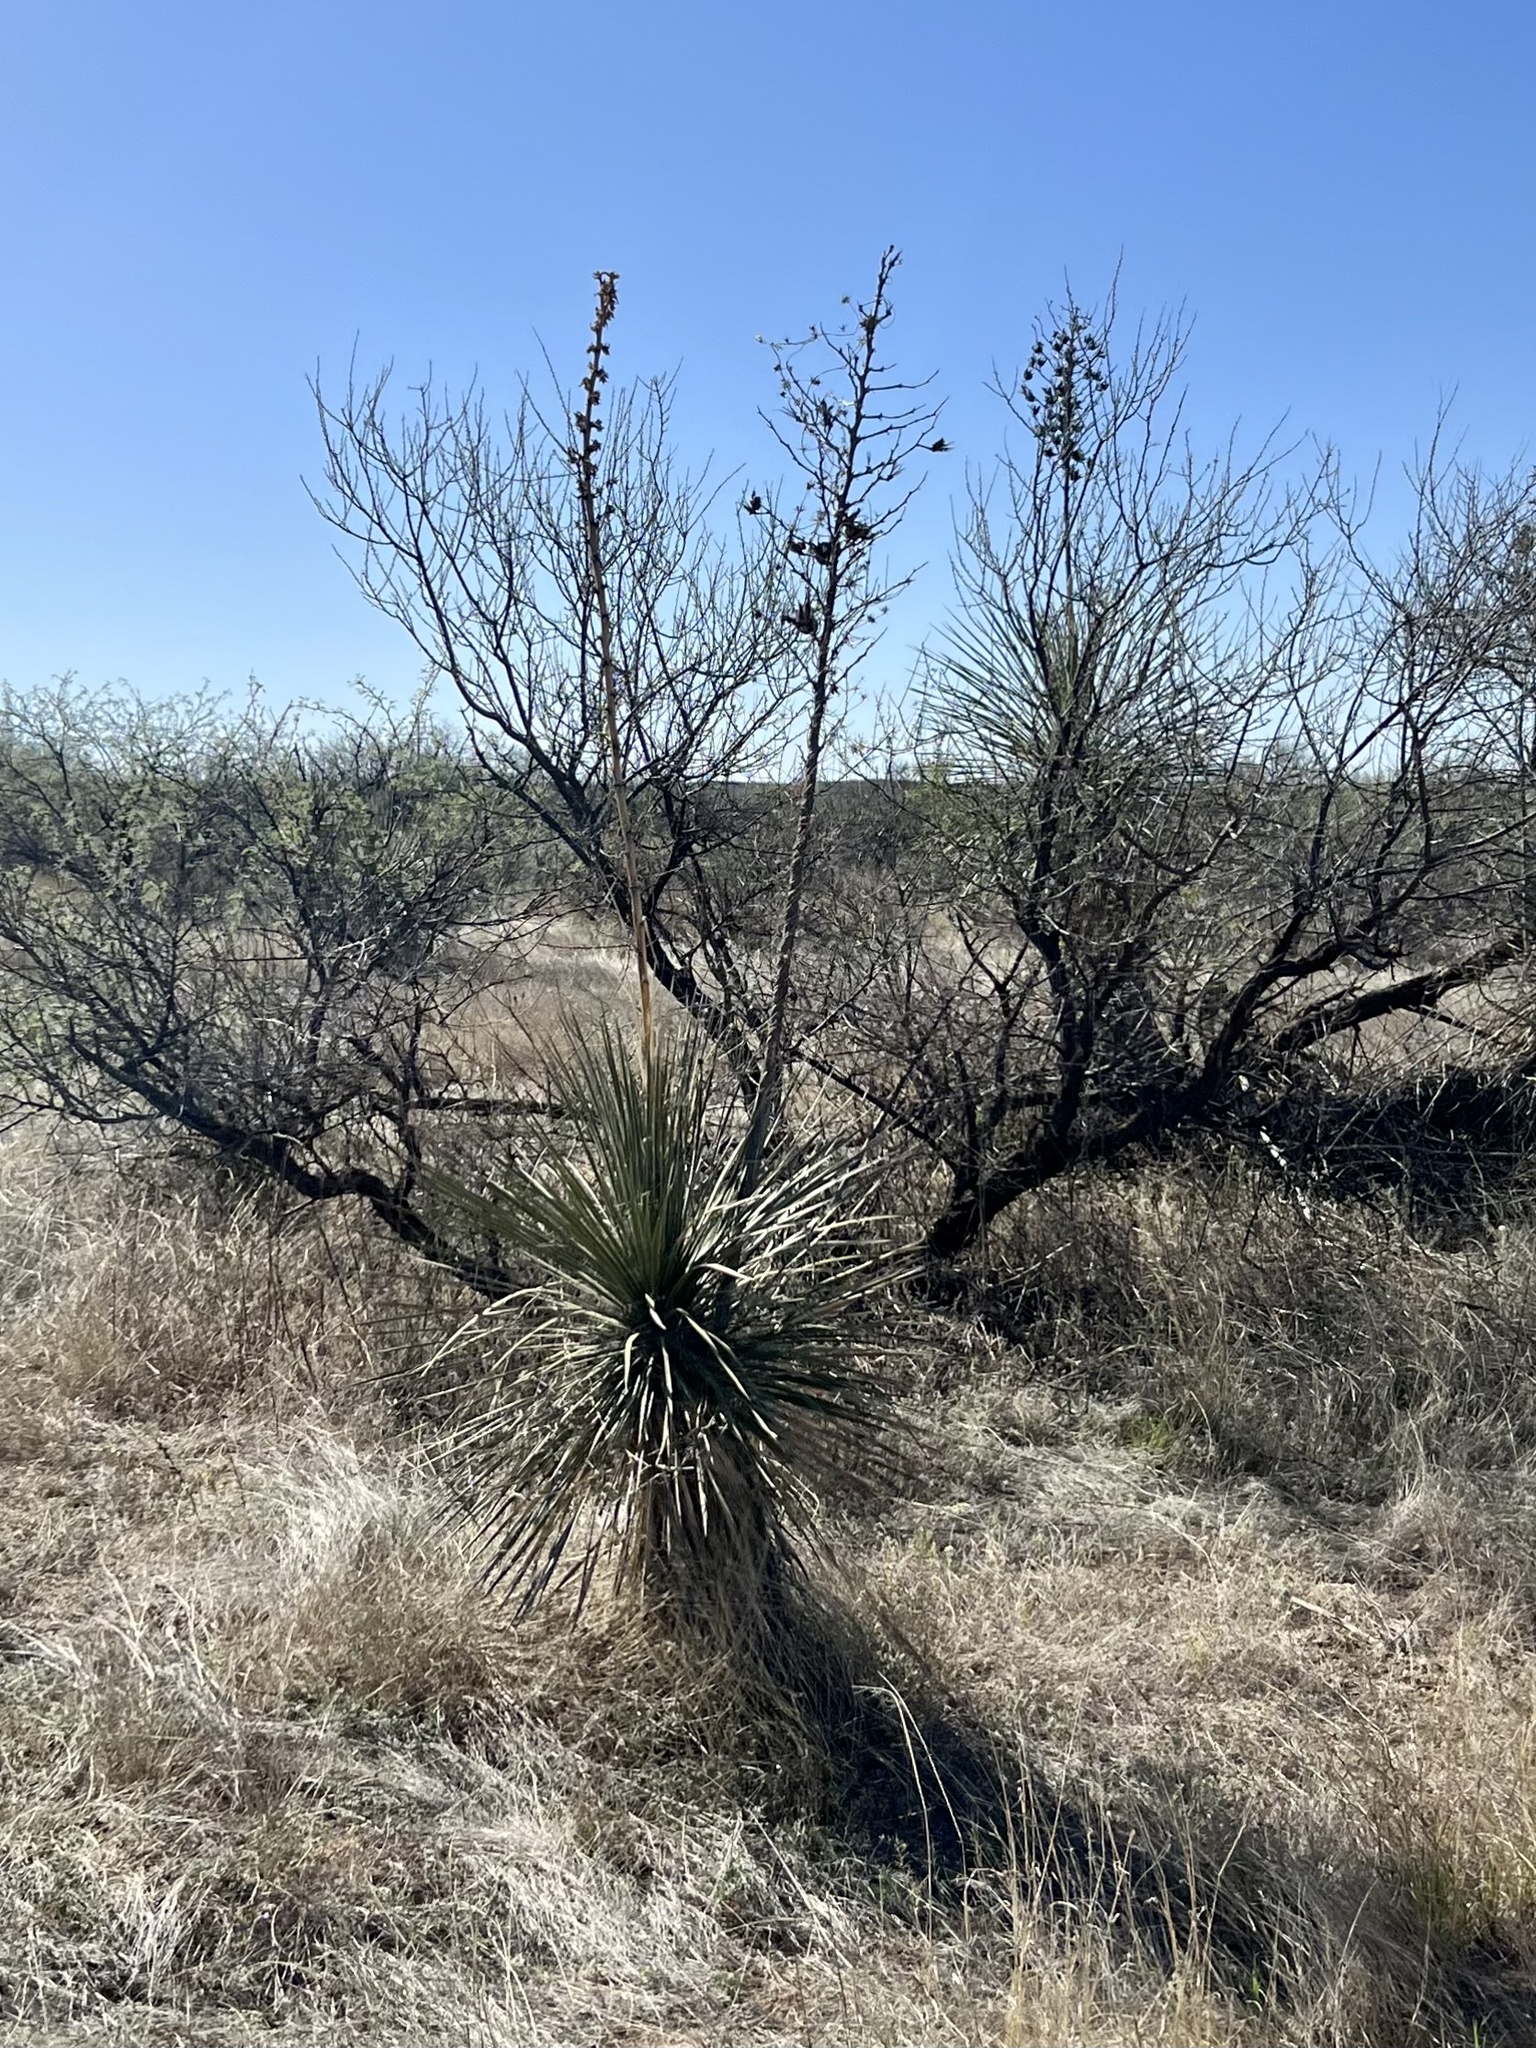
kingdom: Plantae
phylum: Tracheophyta
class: Liliopsida
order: Asparagales
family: Asparagaceae
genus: Yucca
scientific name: Yucca elata
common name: Palmella
